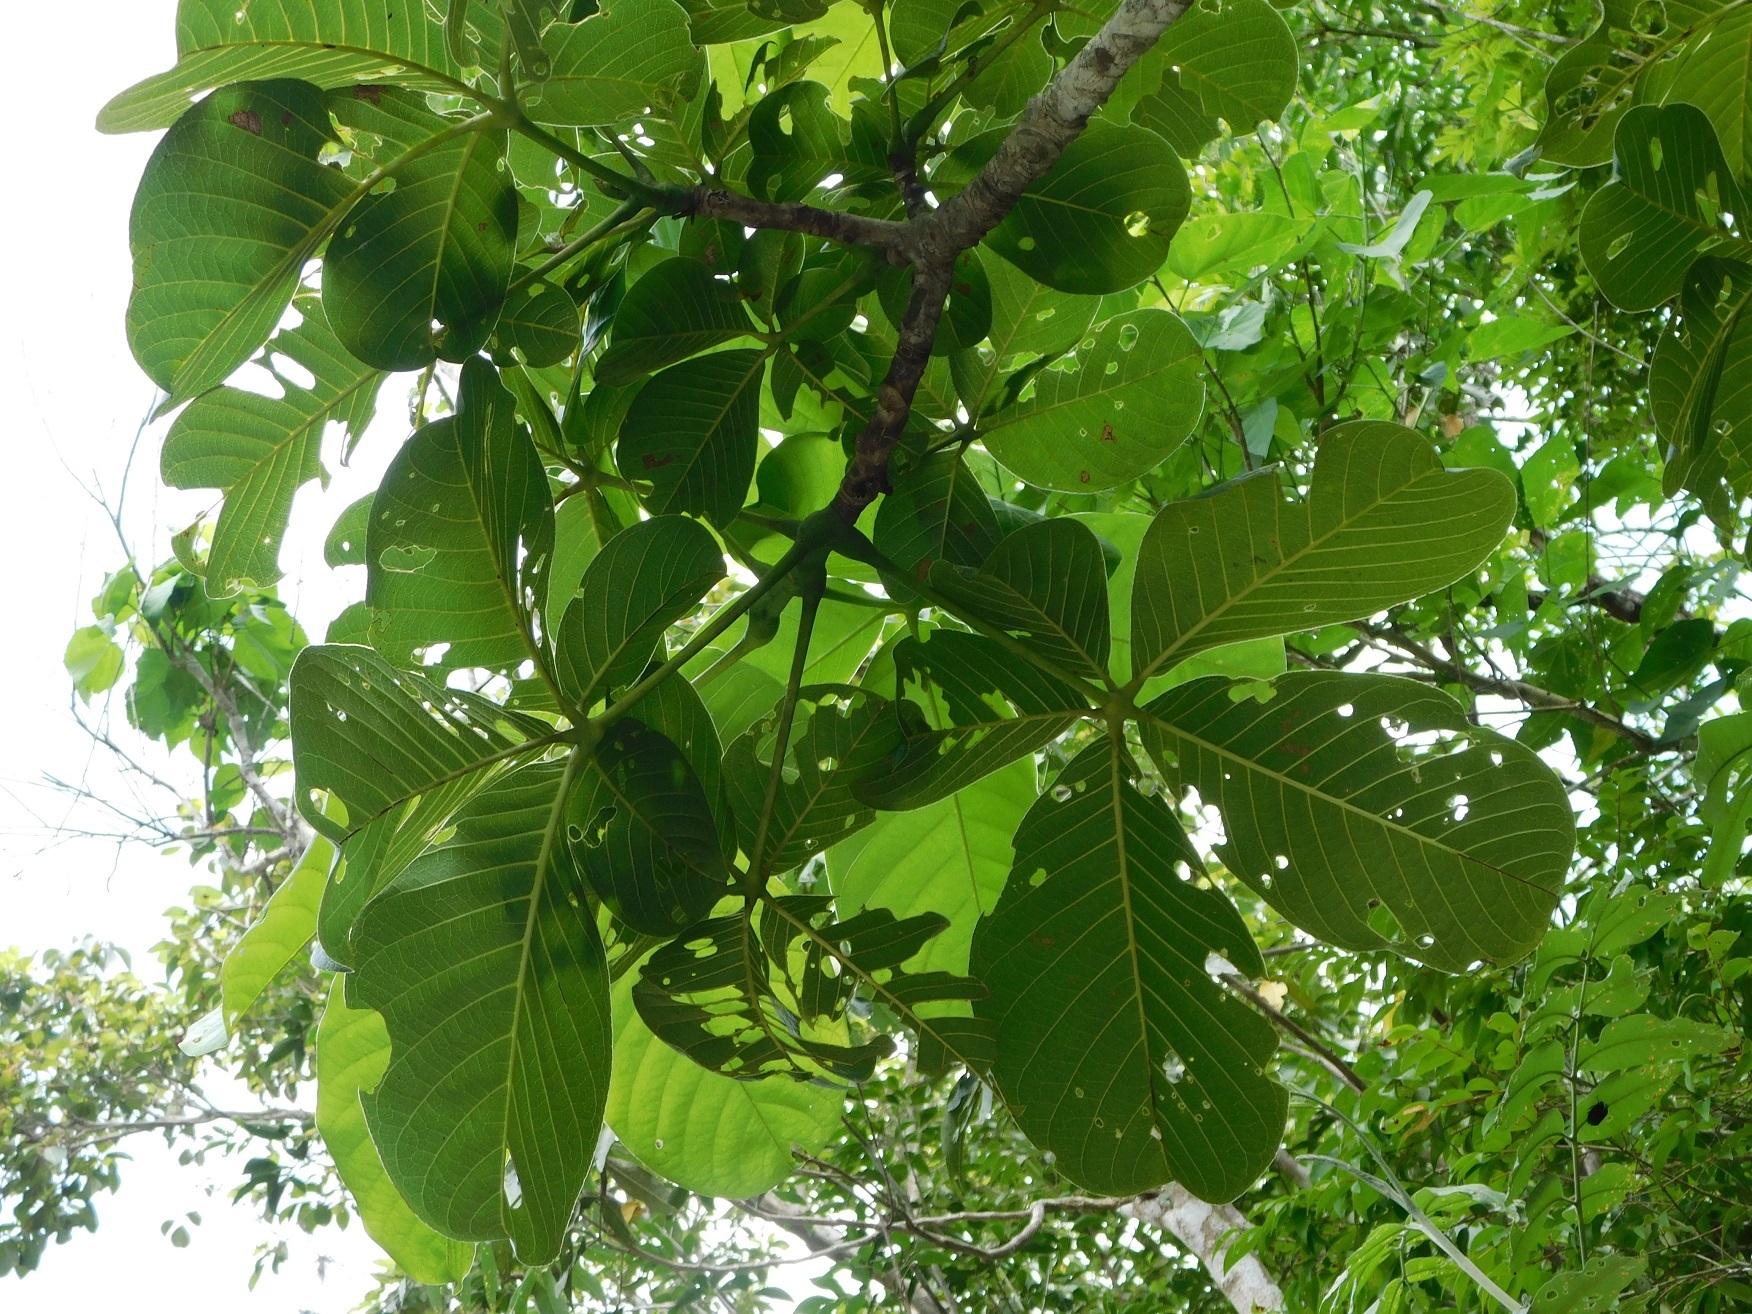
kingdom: Plantae
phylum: Tracheophyta
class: Magnoliopsida
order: Malvales
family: Malvaceae
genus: Pseudobombax
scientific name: Pseudobombax ellipticum
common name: Shaving-brush-tree
